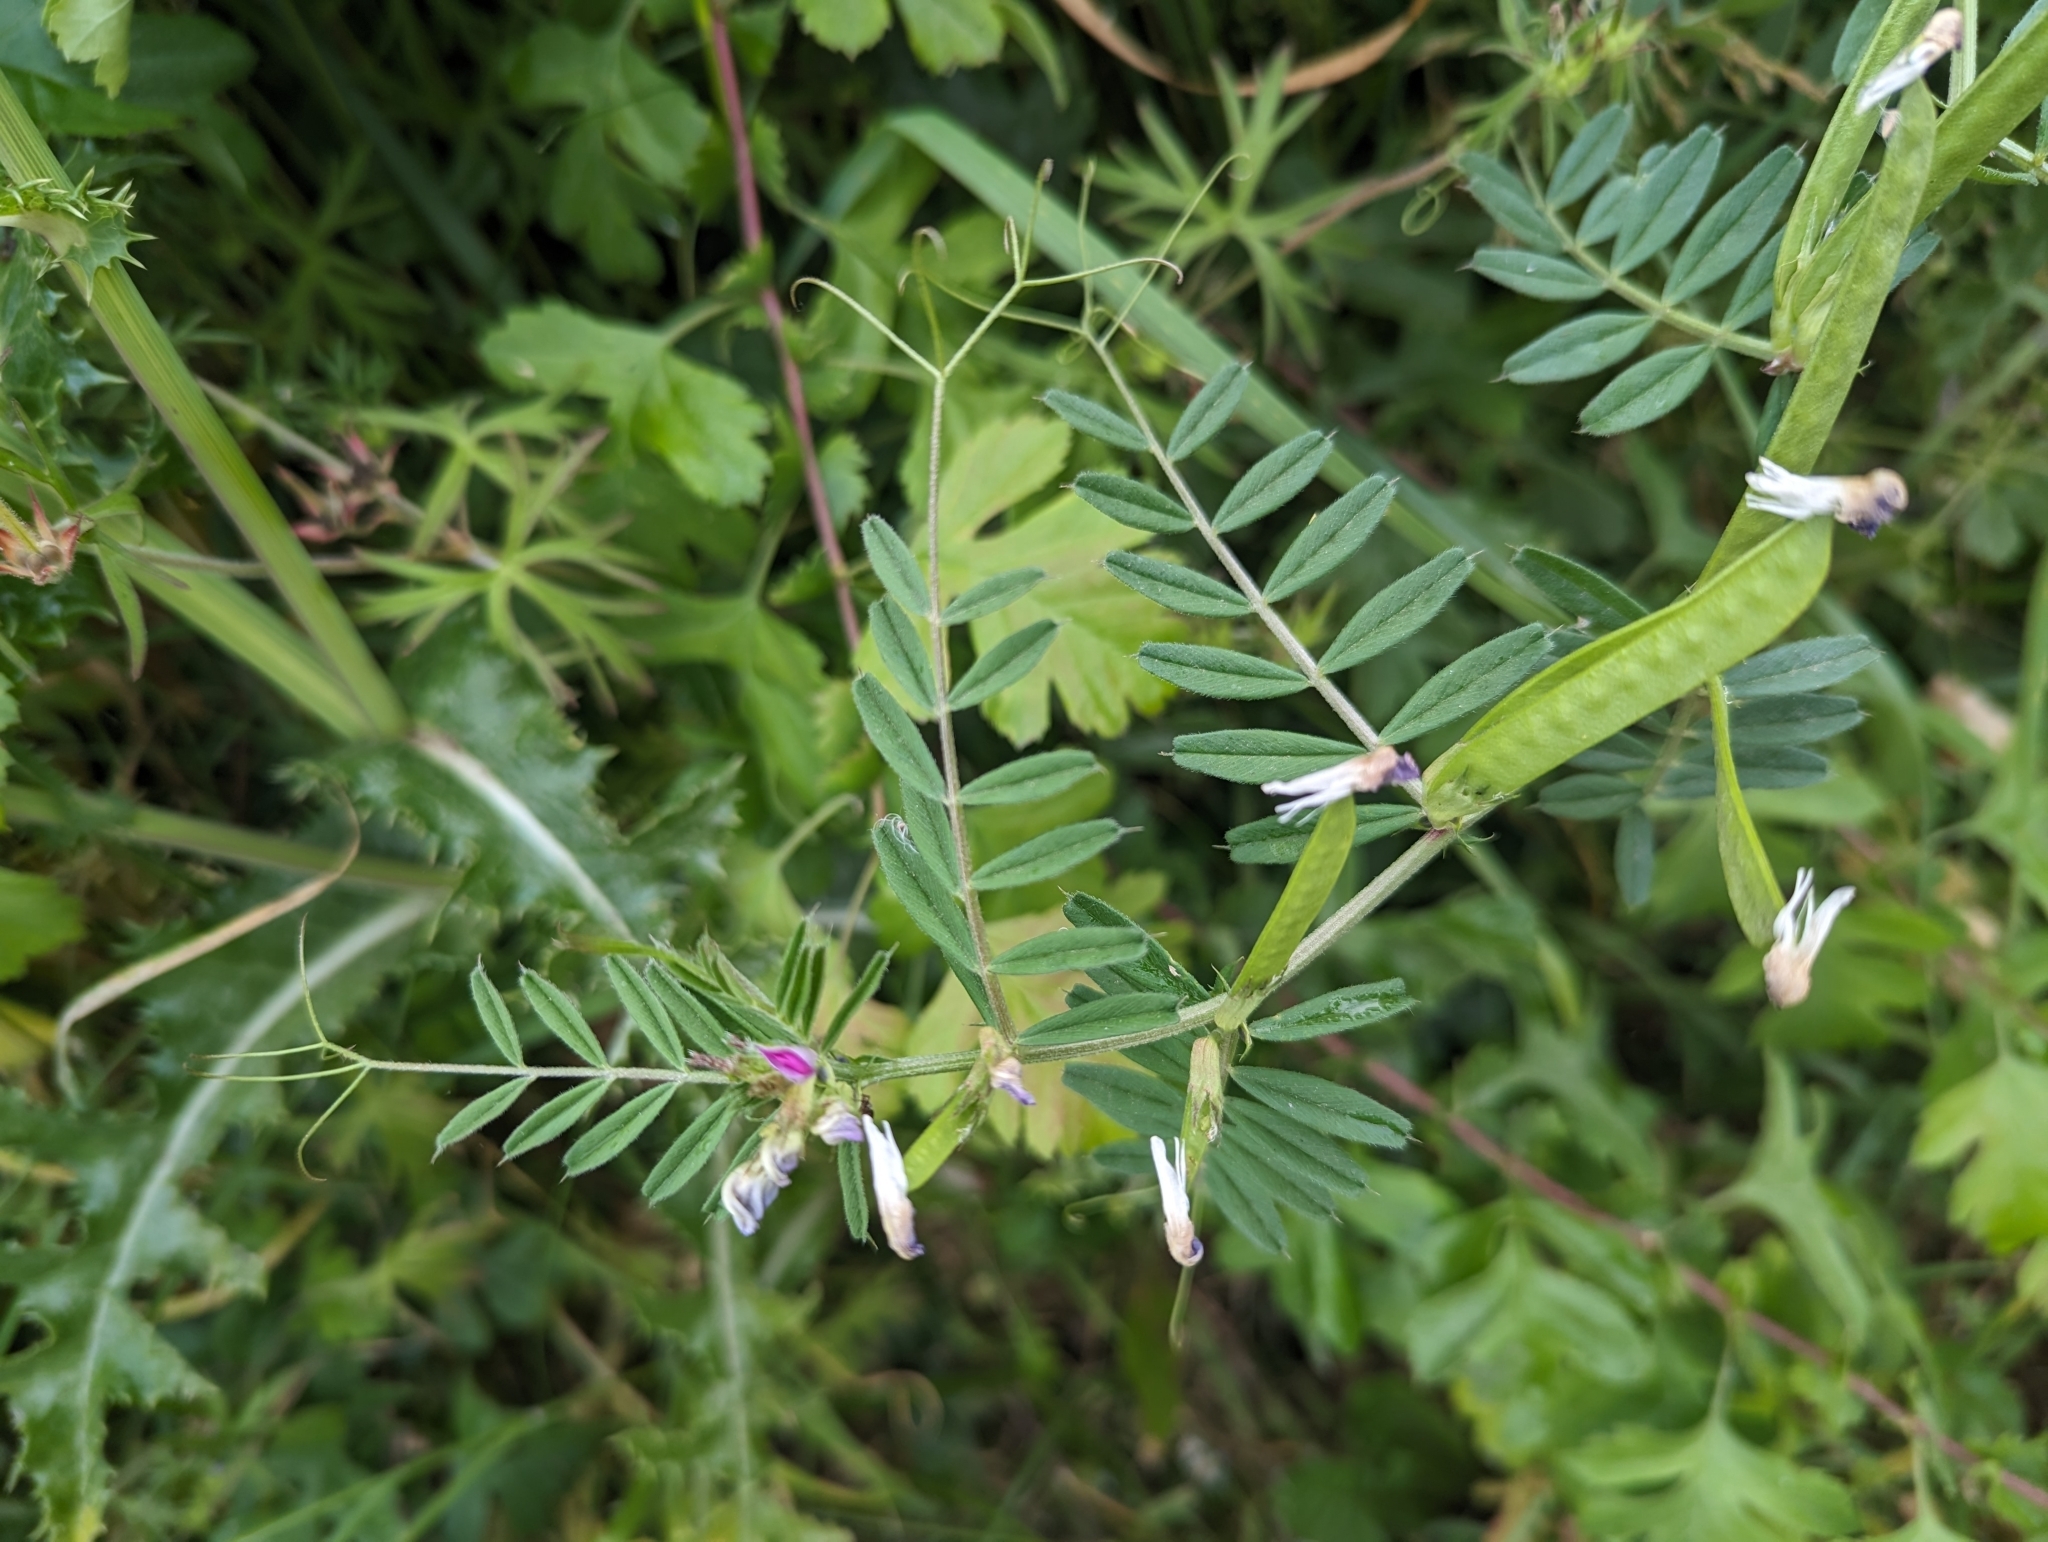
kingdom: Plantae
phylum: Tracheophyta
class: Magnoliopsida
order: Fabales
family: Fabaceae
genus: Vicia
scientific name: Vicia sativa
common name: Garden vetch
